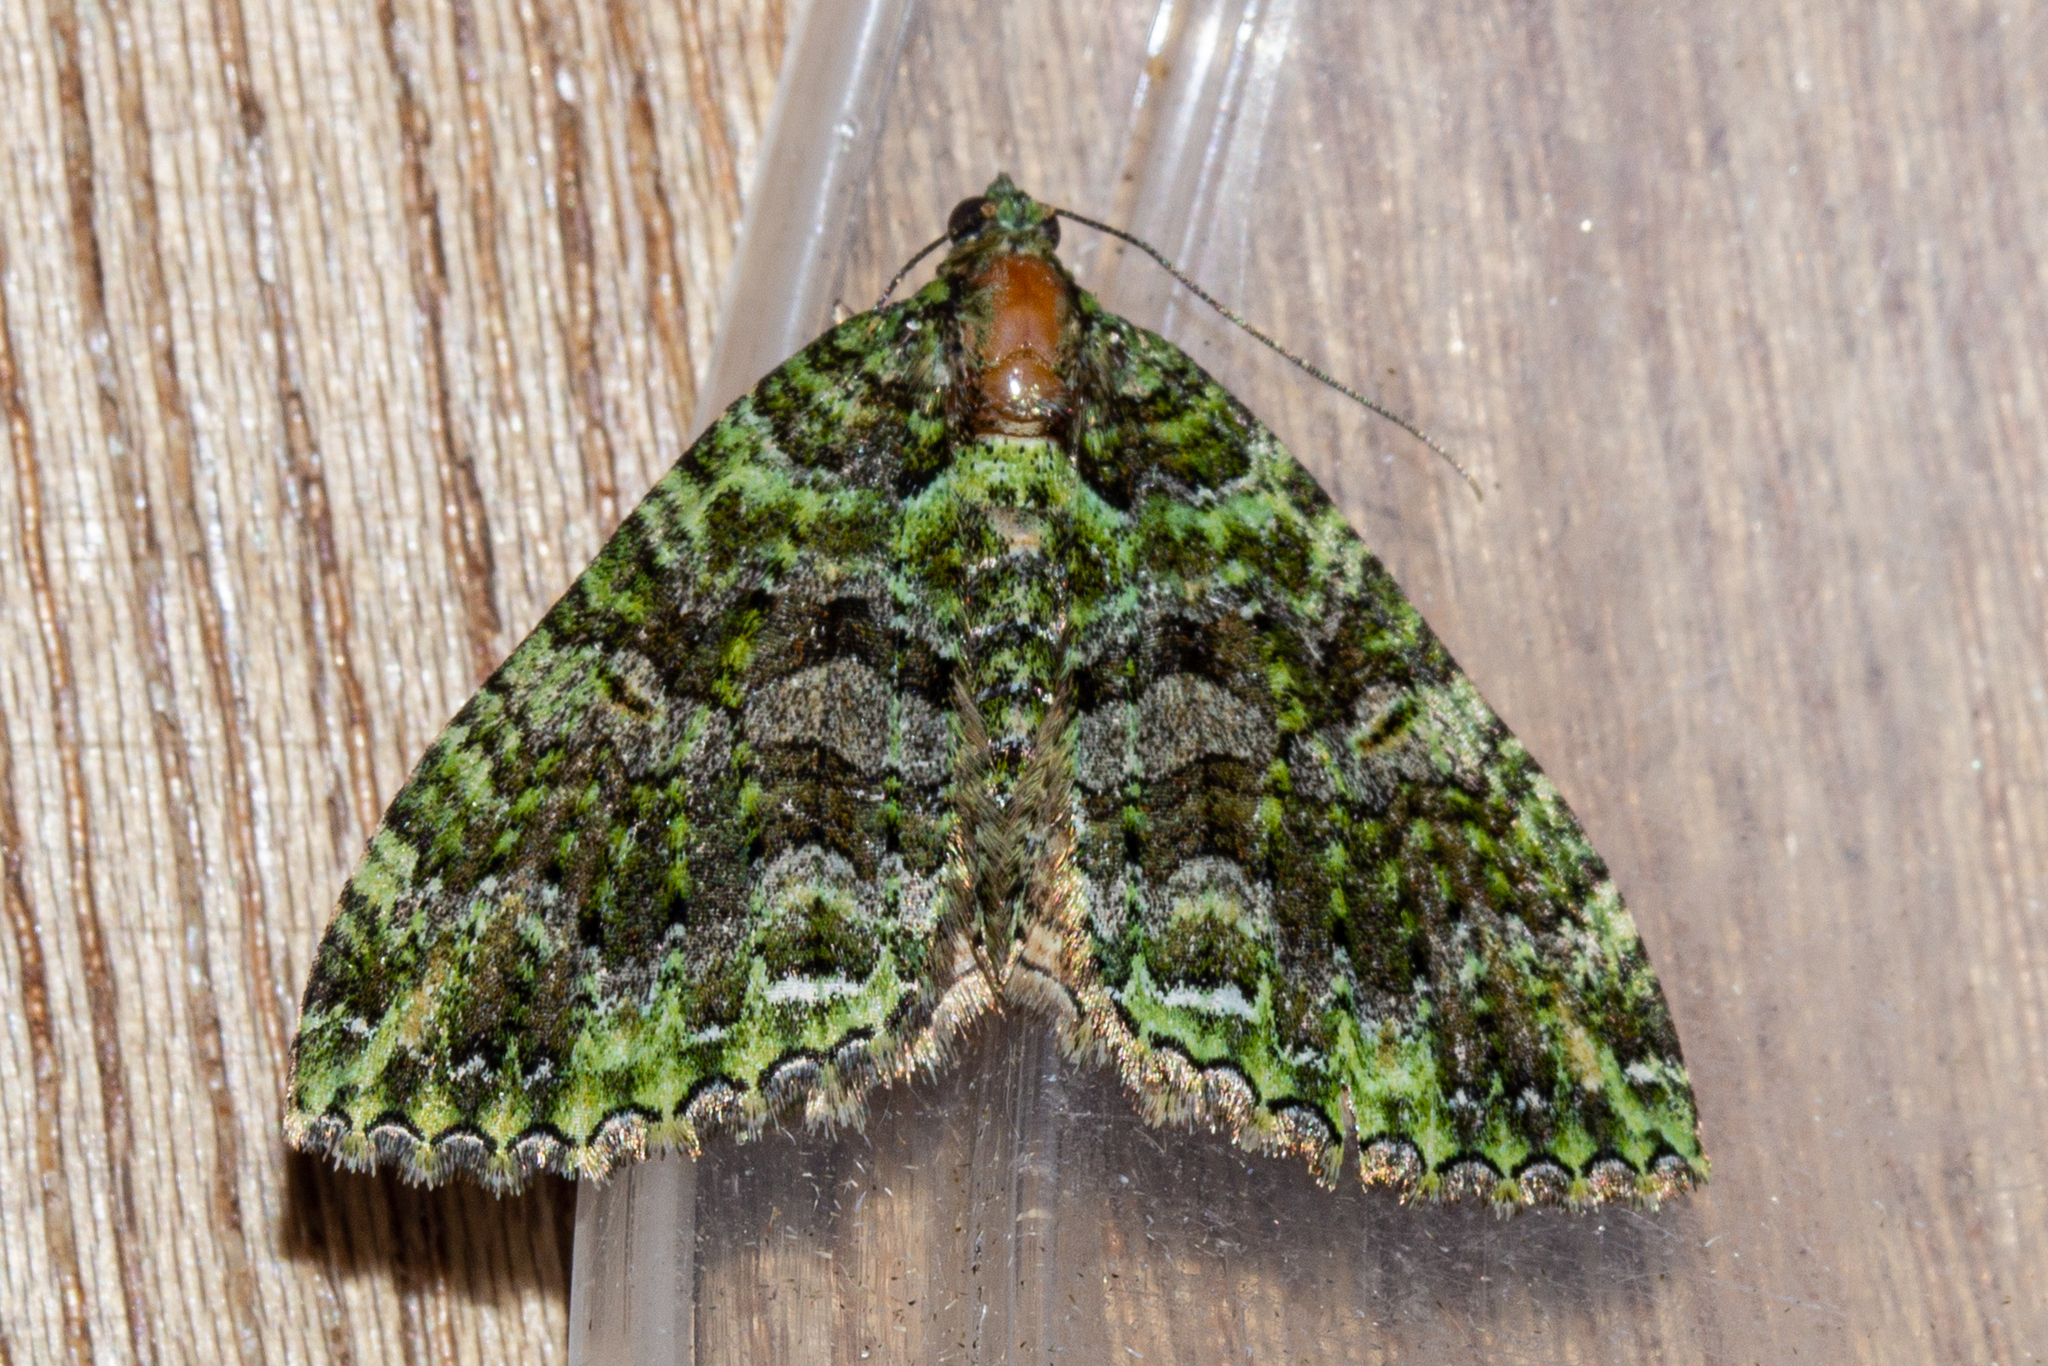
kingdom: Animalia
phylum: Arthropoda
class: Insecta
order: Lepidoptera
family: Geometridae
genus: Austrocidaria
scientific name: Austrocidaria similata
